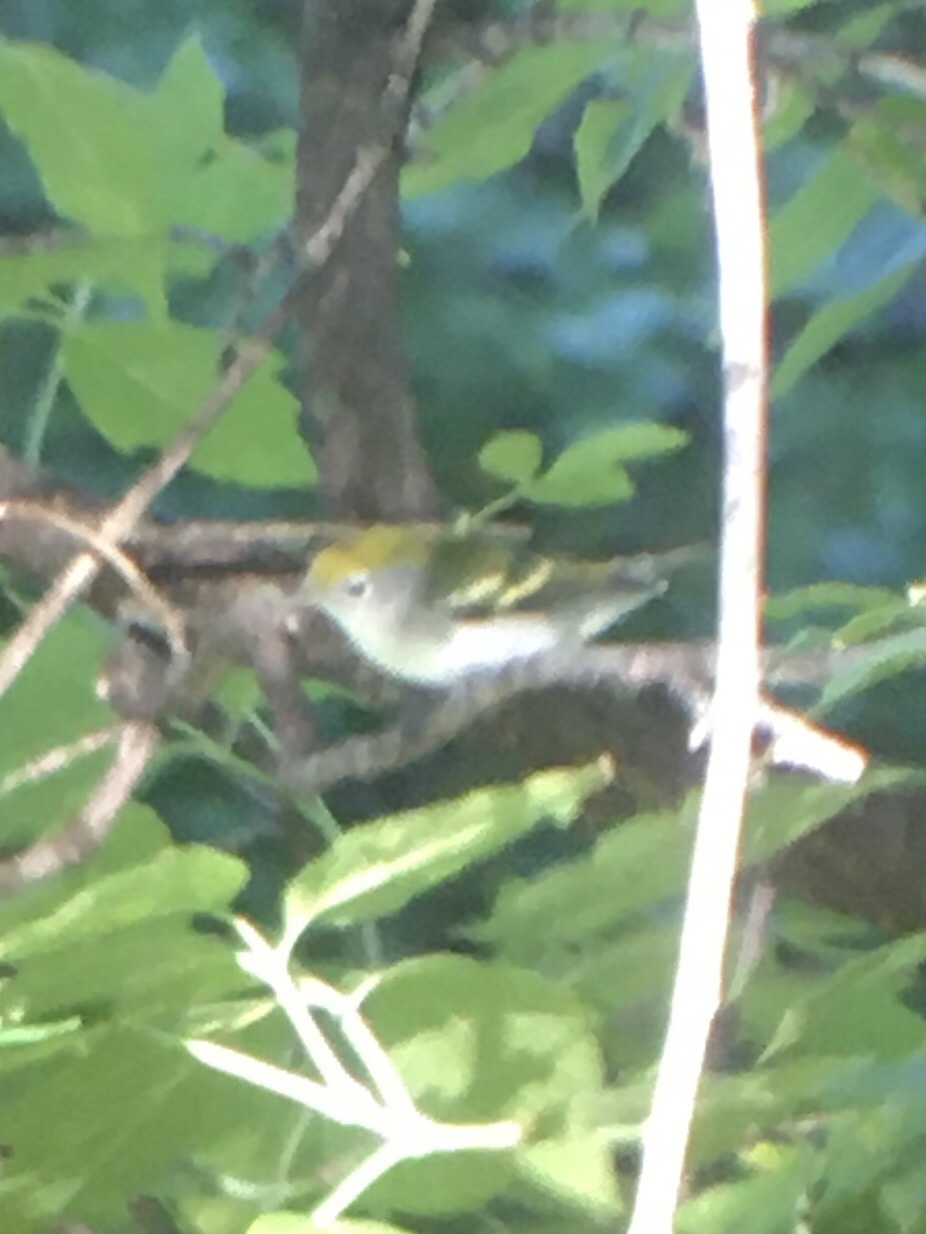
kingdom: Animalia
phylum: Chordata
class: Aves
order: Passeriformes
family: Parulidae
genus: Setophaga
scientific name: Setophaga pensylvanica
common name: Chestnut-sided warbler
